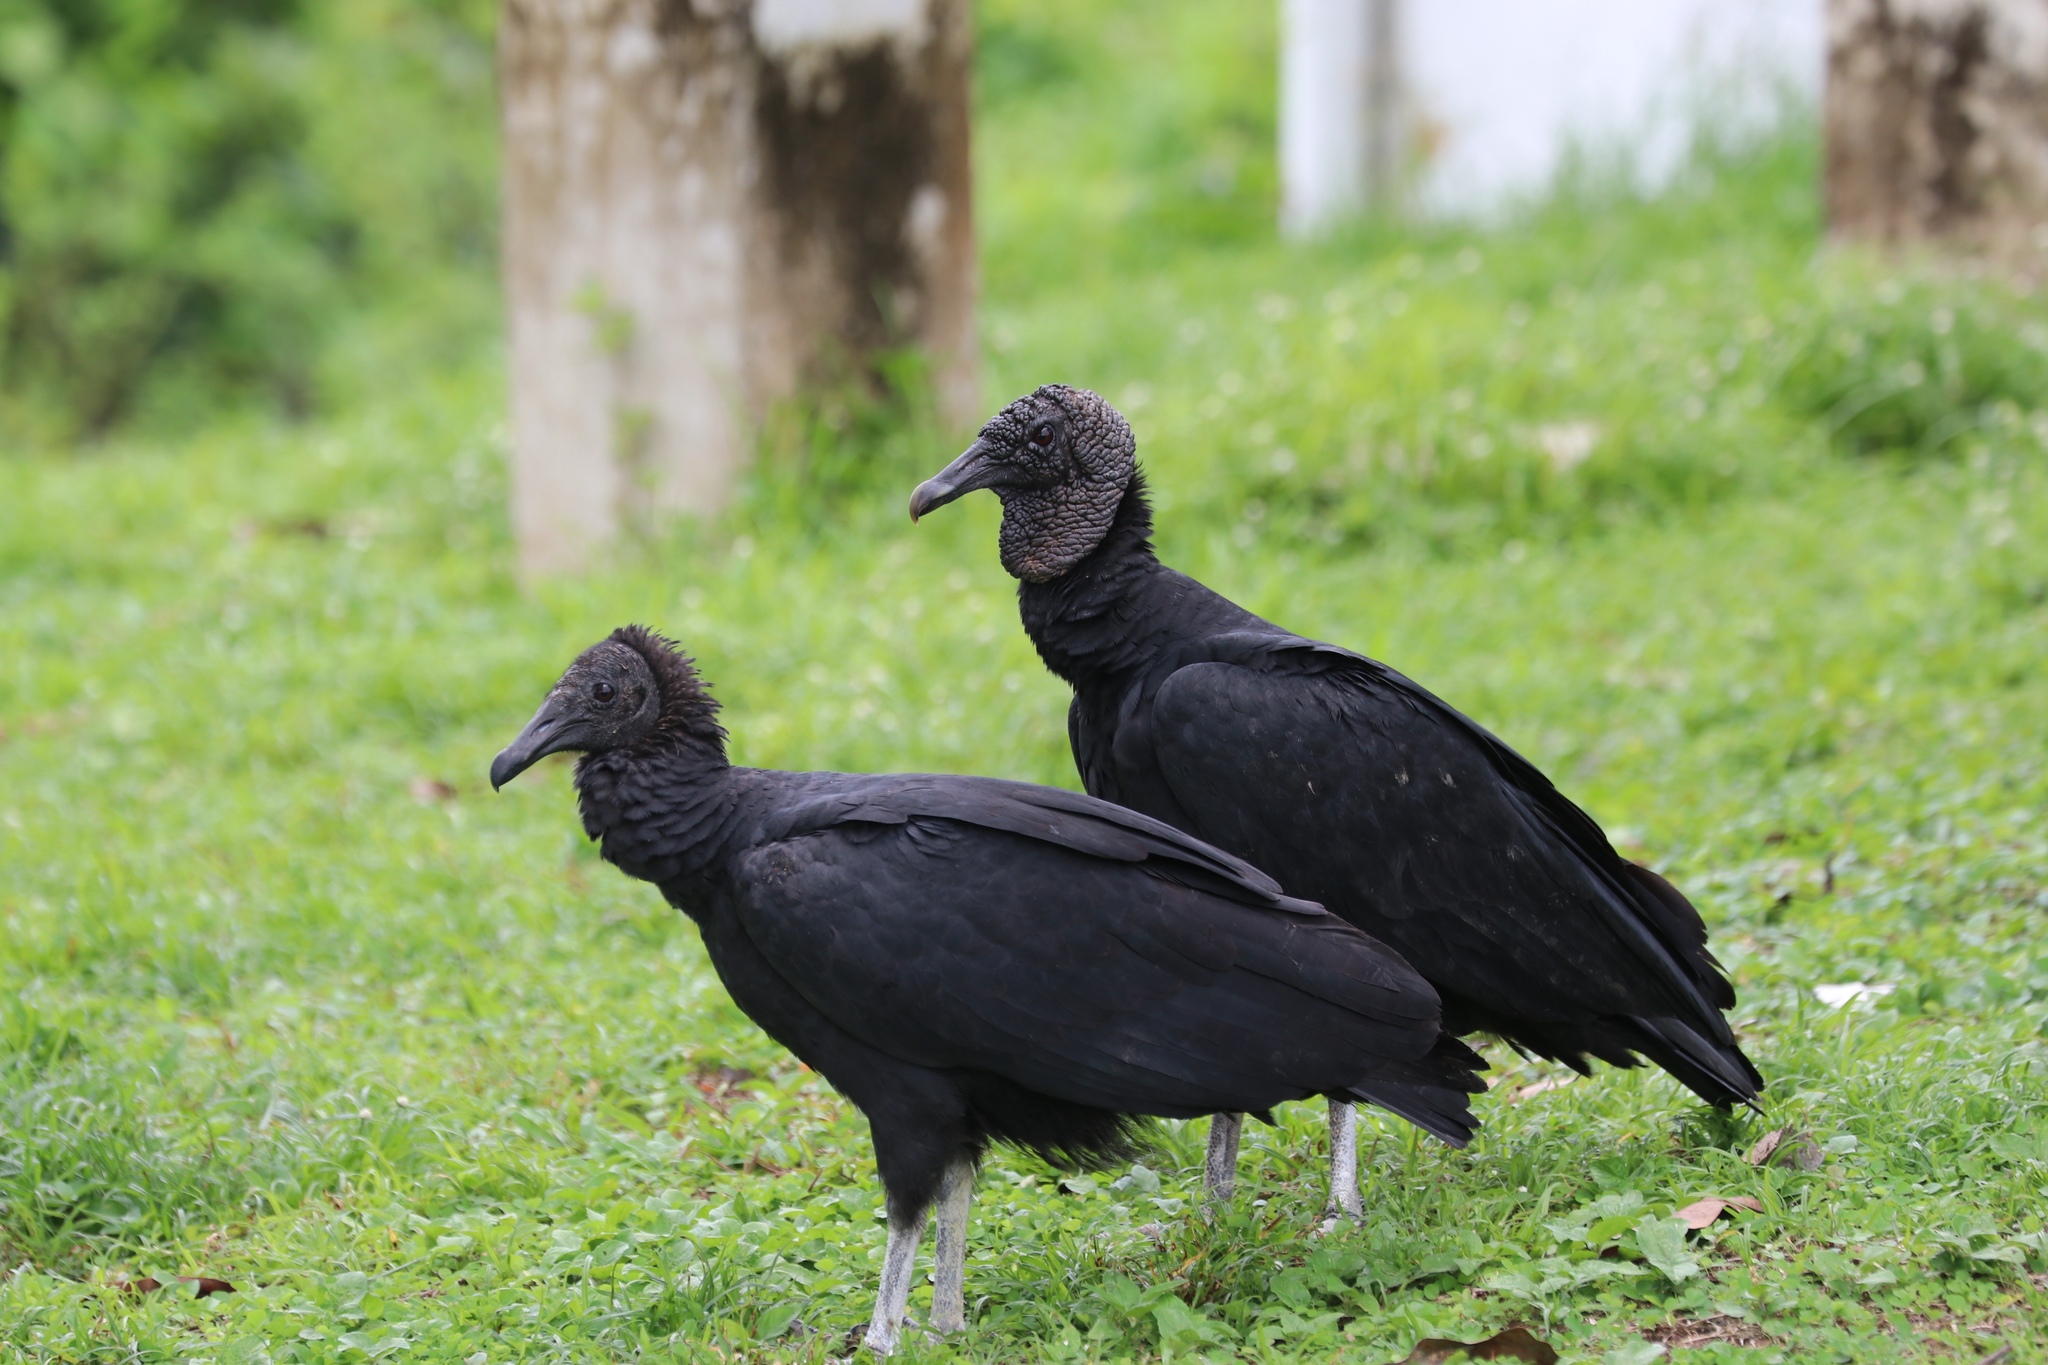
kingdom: Animalia
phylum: Chordata
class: Aves
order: Accipitriformes
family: Cathartidae
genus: Coragyps
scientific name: Coragyps atratus
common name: Black vulture
